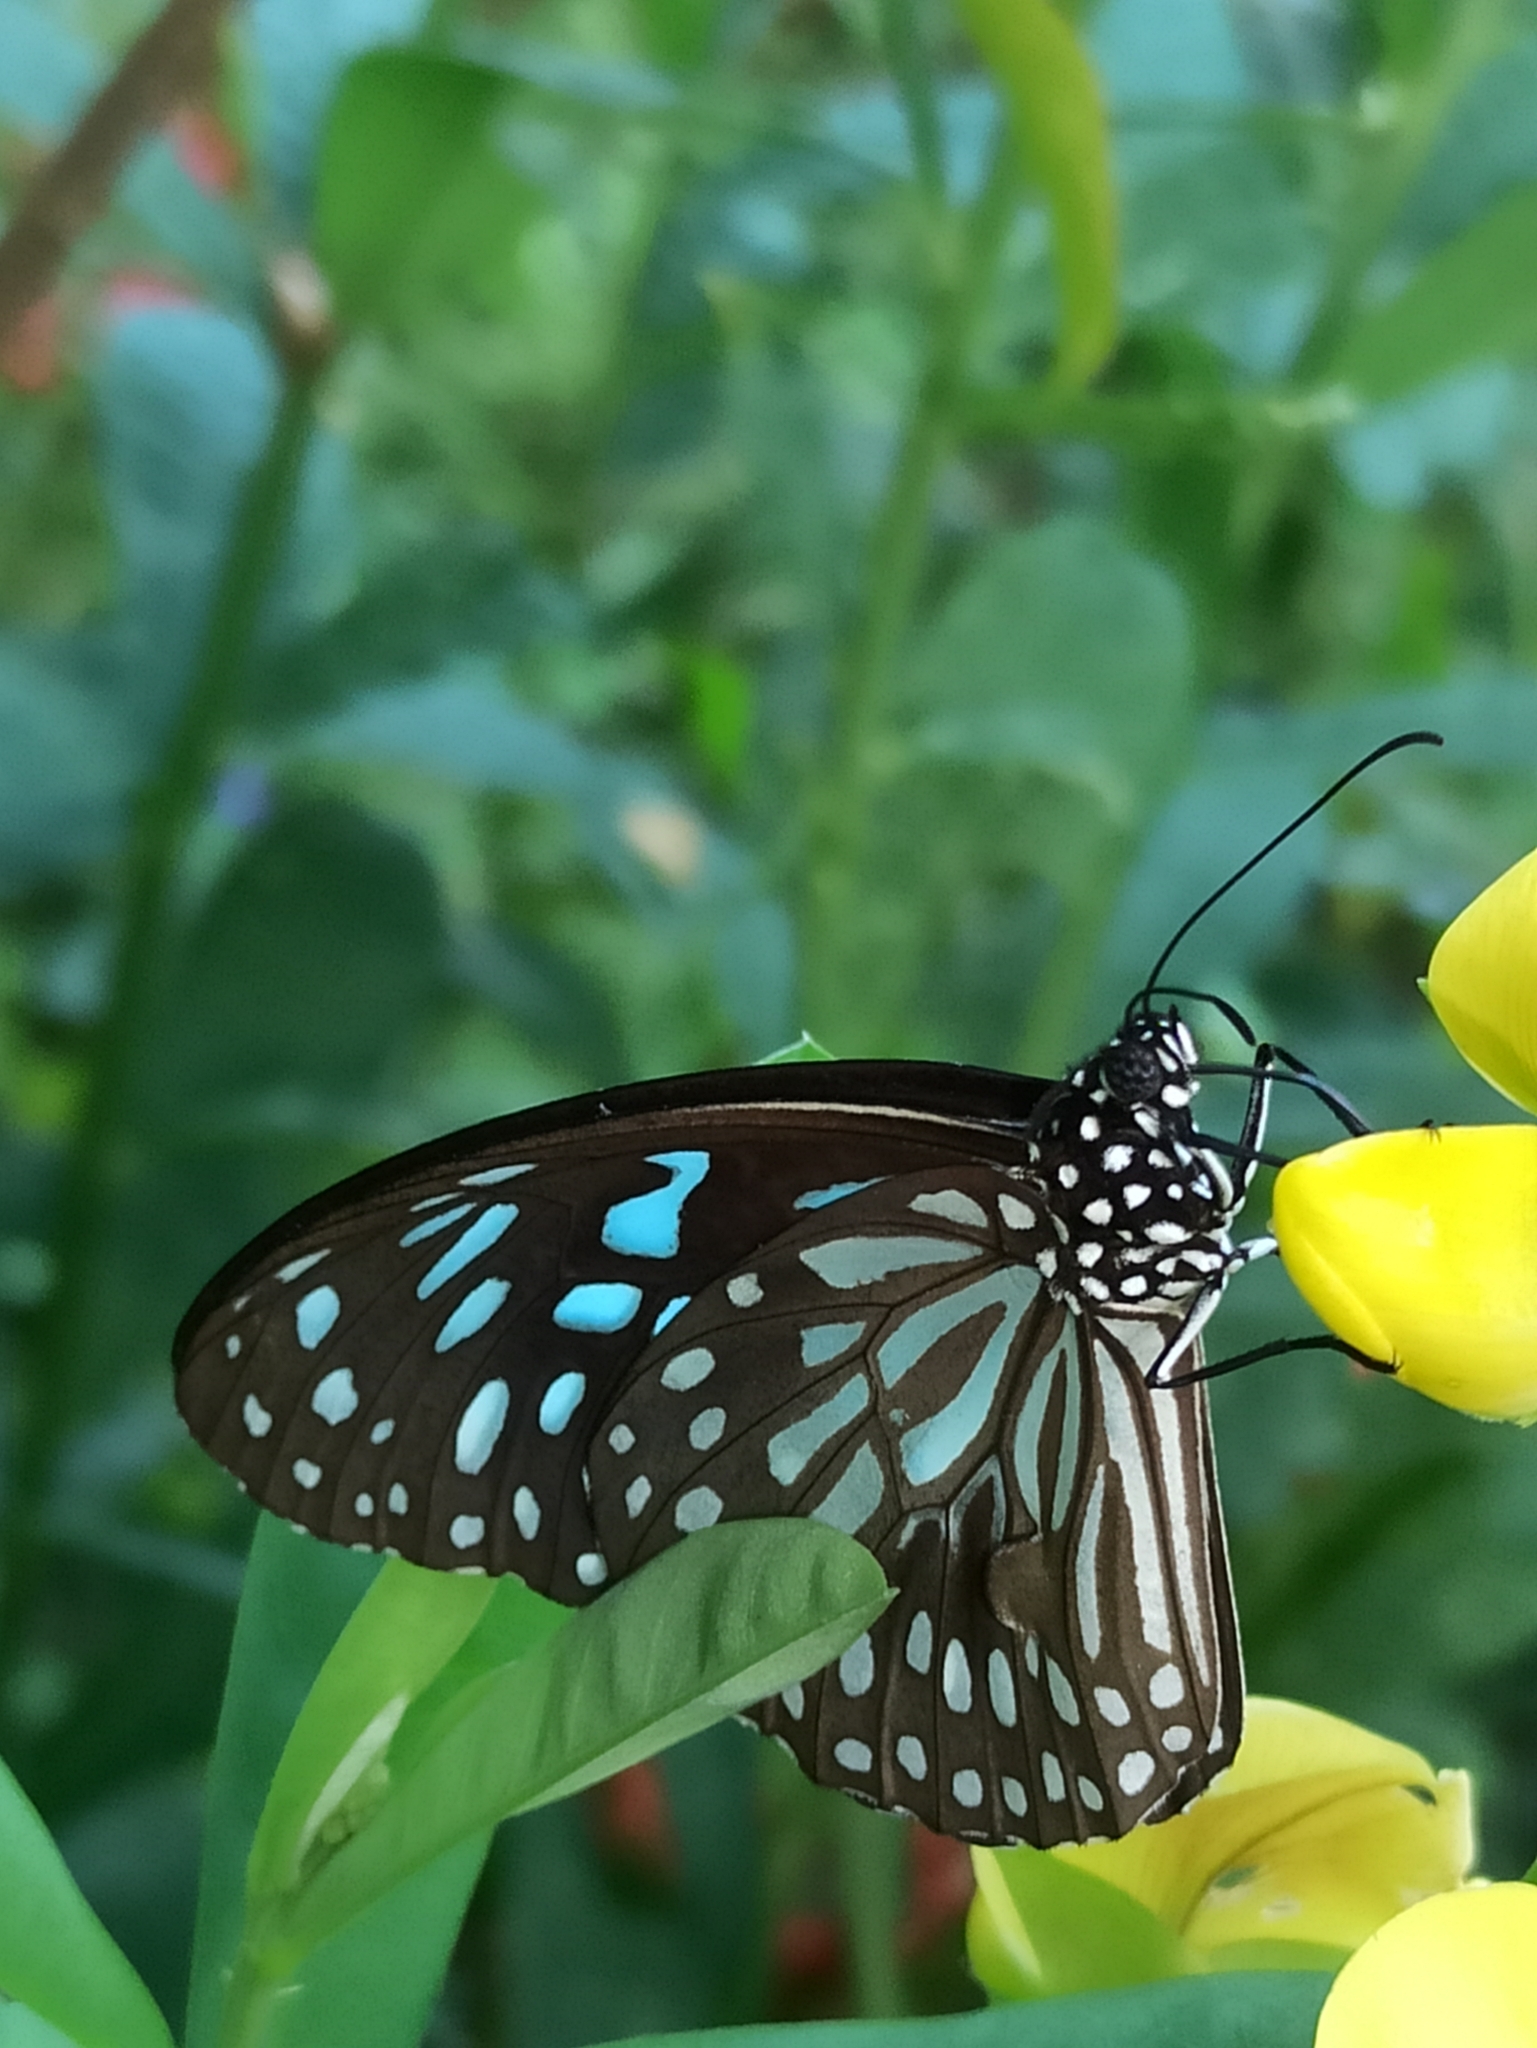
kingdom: Animalia
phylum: Arthropoda
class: Insecta
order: Lepidoptera
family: Nymphalidae
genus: Tirumala
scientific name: Tirumala septentrionis
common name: Dark blue tiger butterfly
